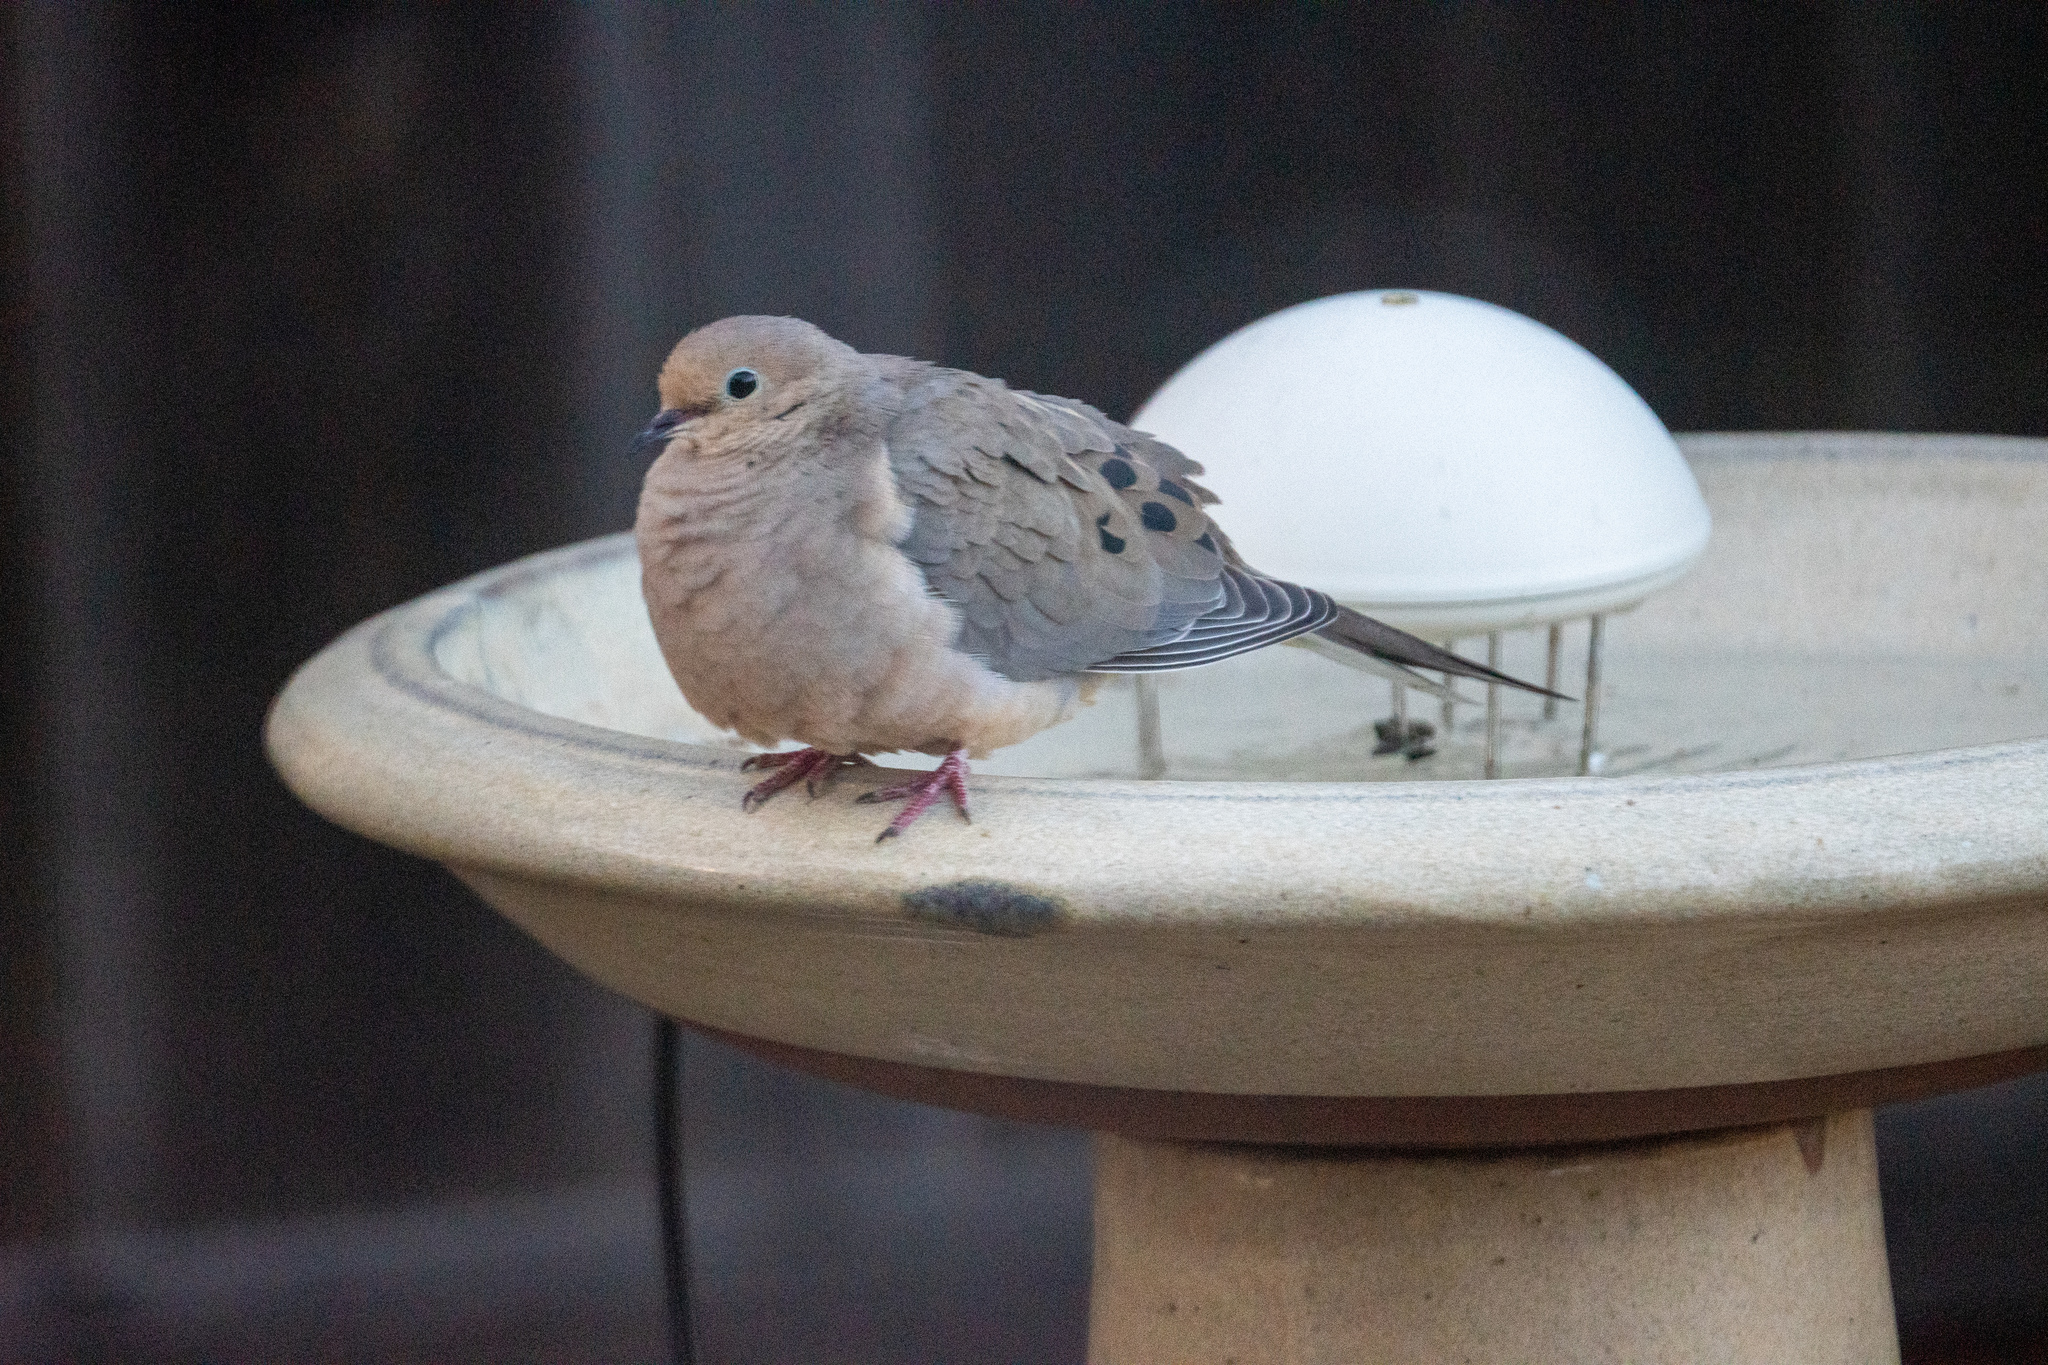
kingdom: Animalia
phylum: Chordata
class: Aves
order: Columbiformes
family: Columbidae
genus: Zenaida
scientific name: Zenaida macroura
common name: Mourning dove
